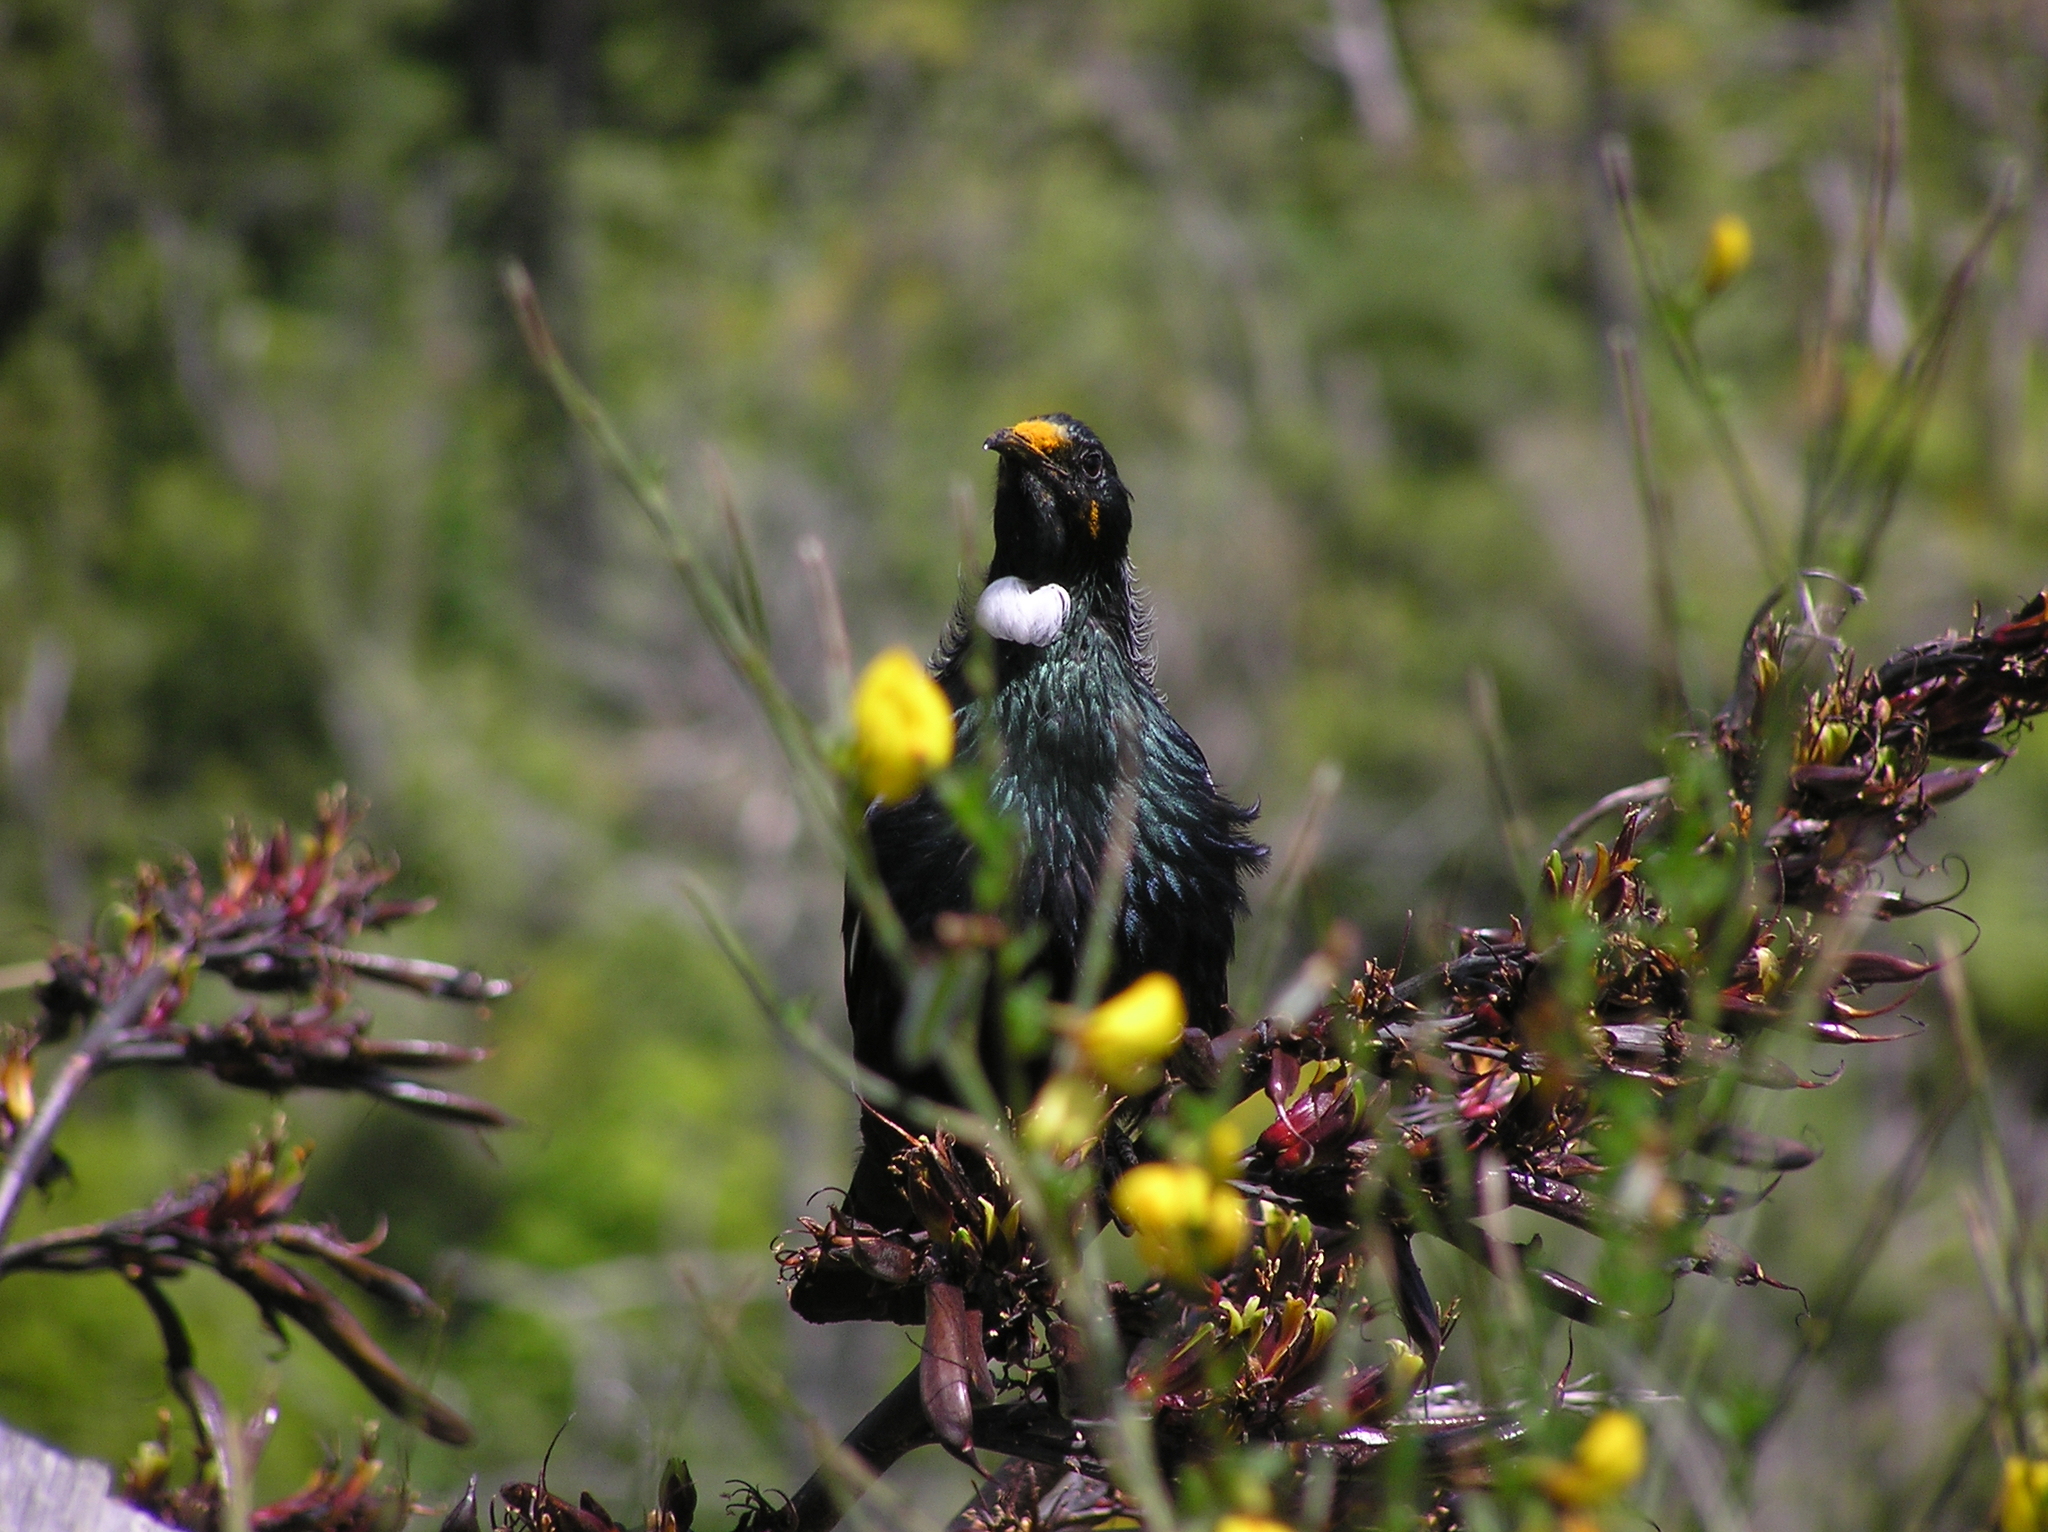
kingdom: Animalia
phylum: Chordata
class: Aves
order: Passeriformes
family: Meliphagidae
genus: Prosthemadera
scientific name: Prosthemadera novaeseelandiae
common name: Tui
